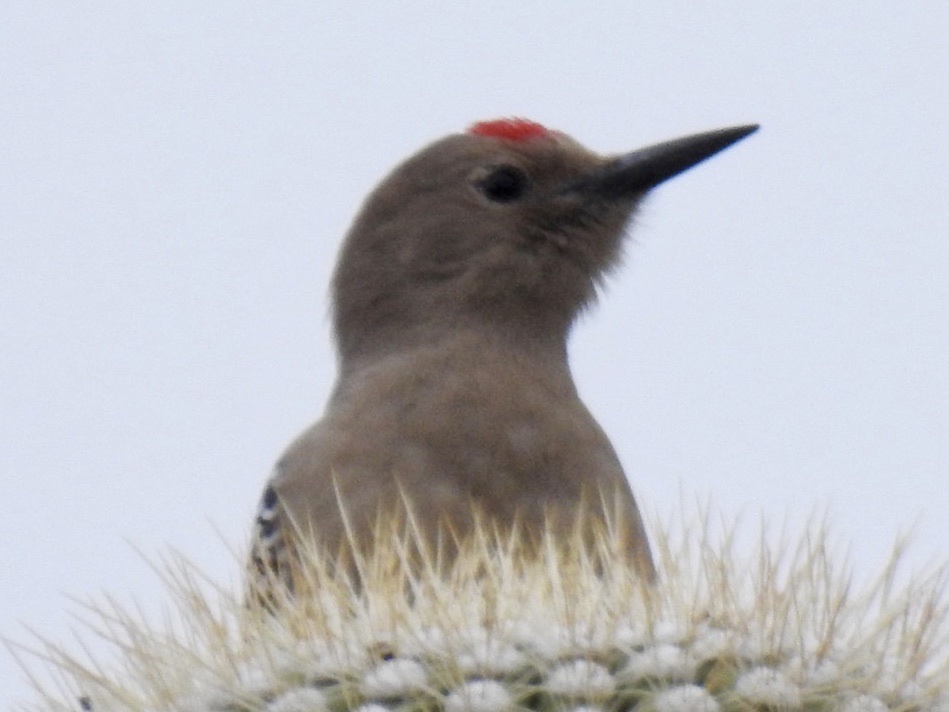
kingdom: Animalia
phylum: Chordata
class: Aves
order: Piciformes
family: Picidae
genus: Melanerpes
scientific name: Melanerpes uropygialis
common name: Gila woodpecker
